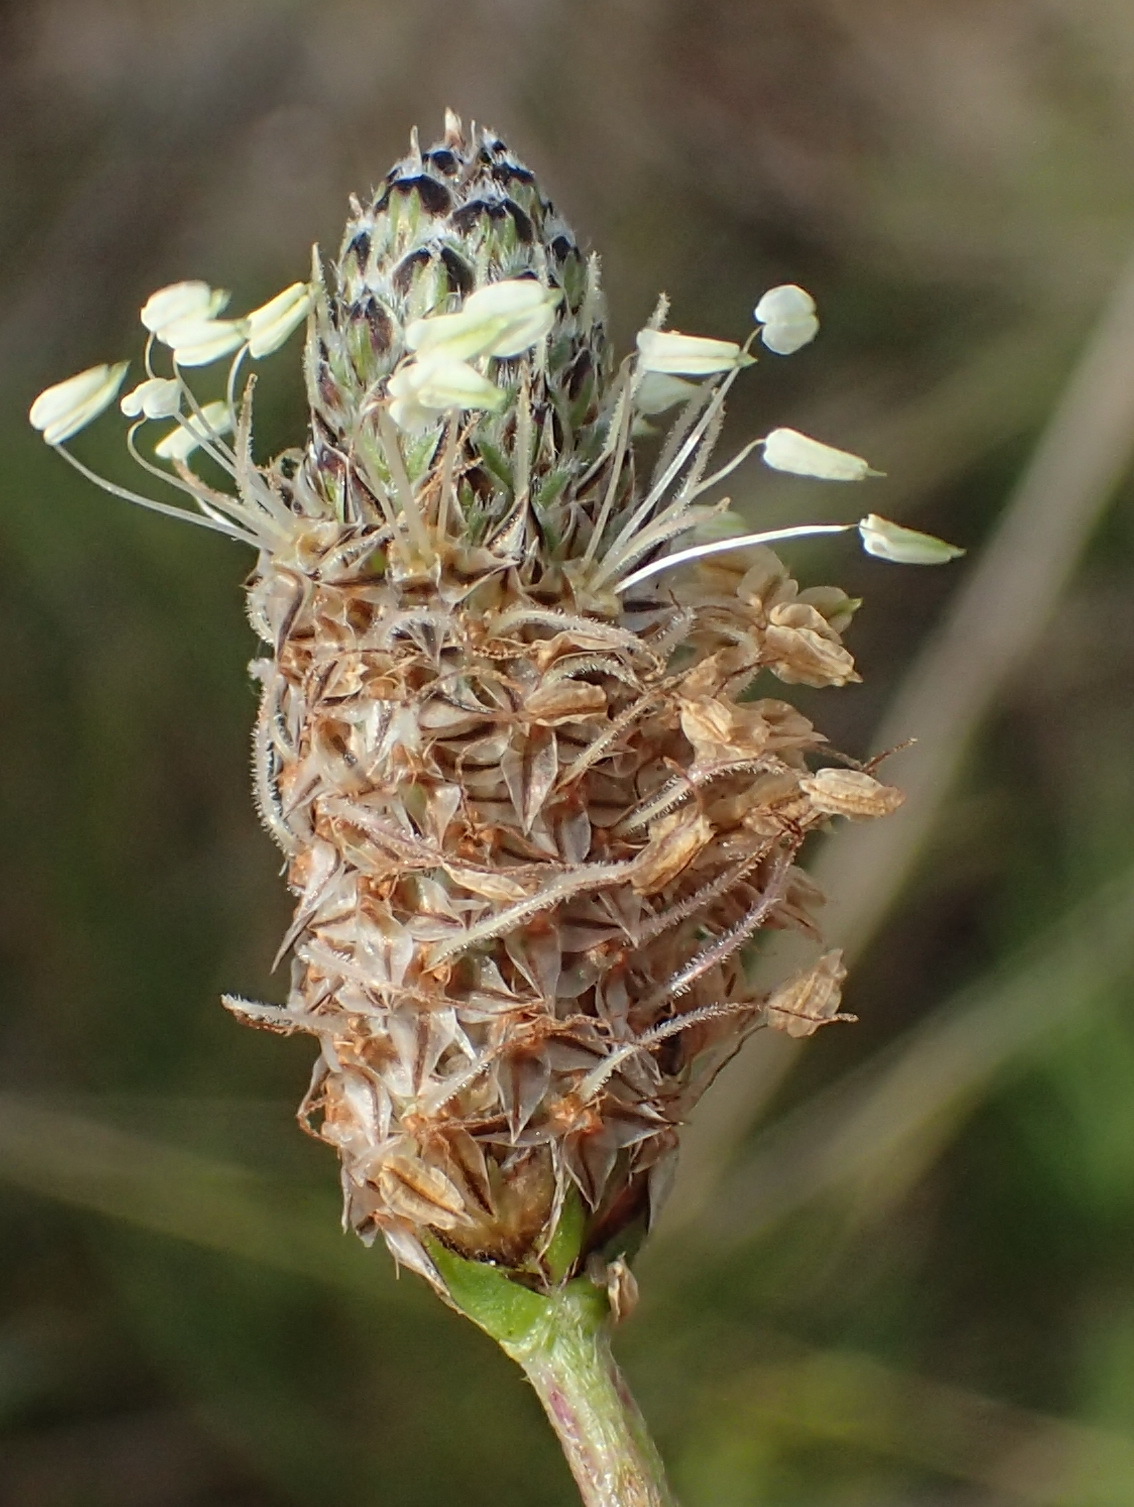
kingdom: Plantae
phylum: Tracheophyta
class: Magnoliopsida
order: Lamiales
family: Plantaginaceae
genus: Plantago
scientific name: Plantago lanceolata
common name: Ribwort plantain
